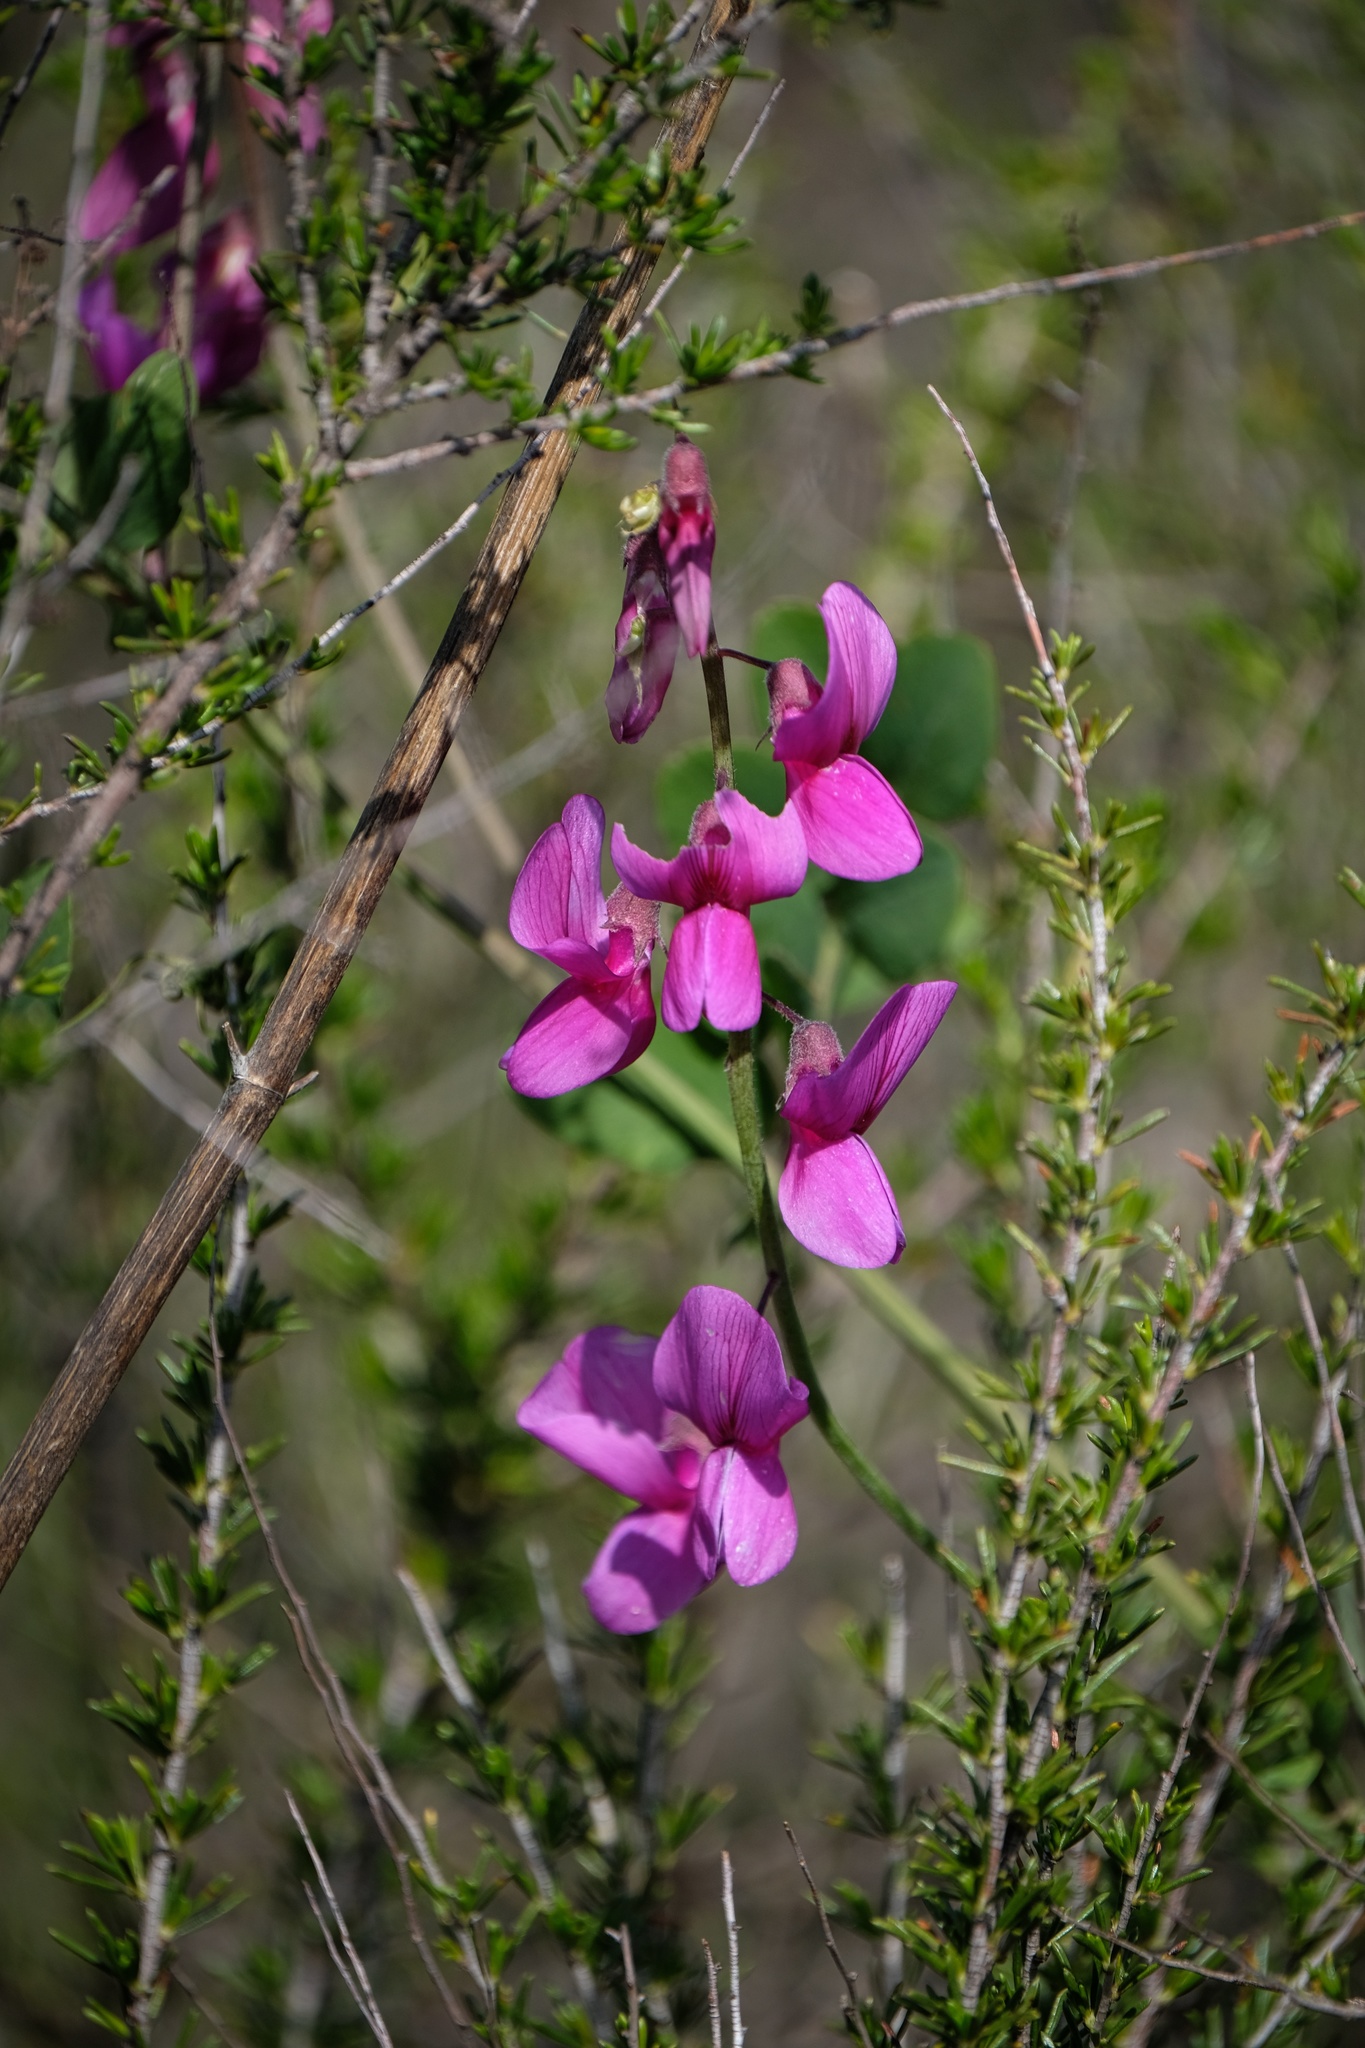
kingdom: Plantae
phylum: Tracheophyta
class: Magnoliopsida
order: Fabales
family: Fabaceae
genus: Lathyrus
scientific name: Lathyrus vestitus
